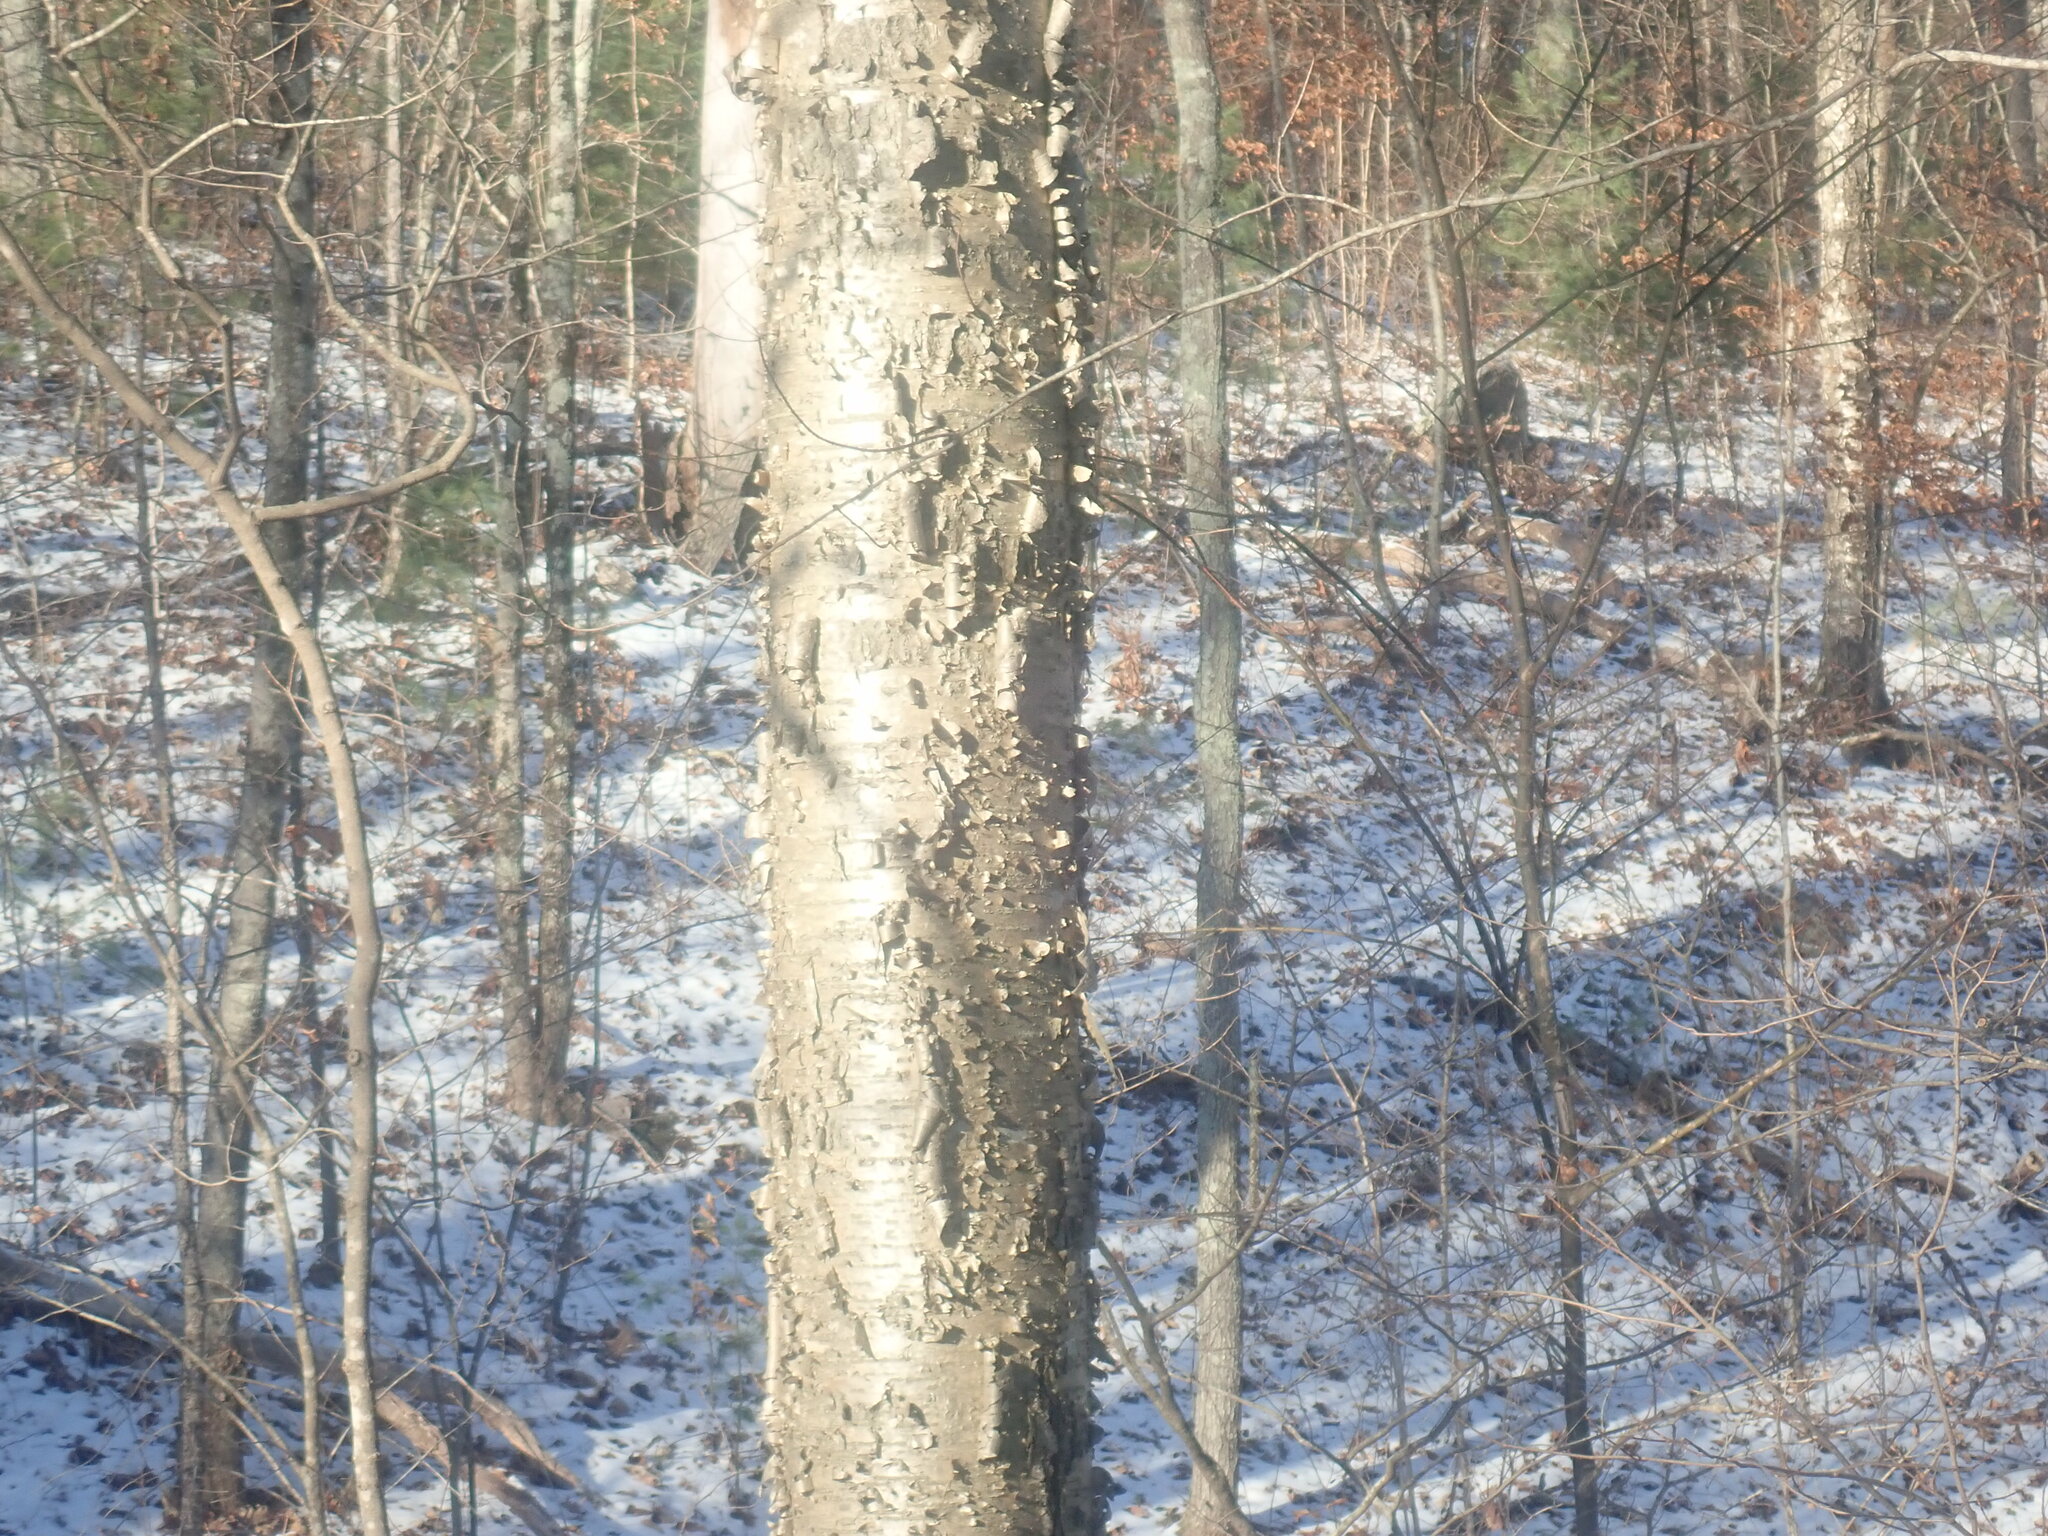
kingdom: Plantae
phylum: Tracheophyta
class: Magnoliopsida
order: Fagales
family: Betulaceae
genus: Betula
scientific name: Betula alleghaniensis
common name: Yellow birch
